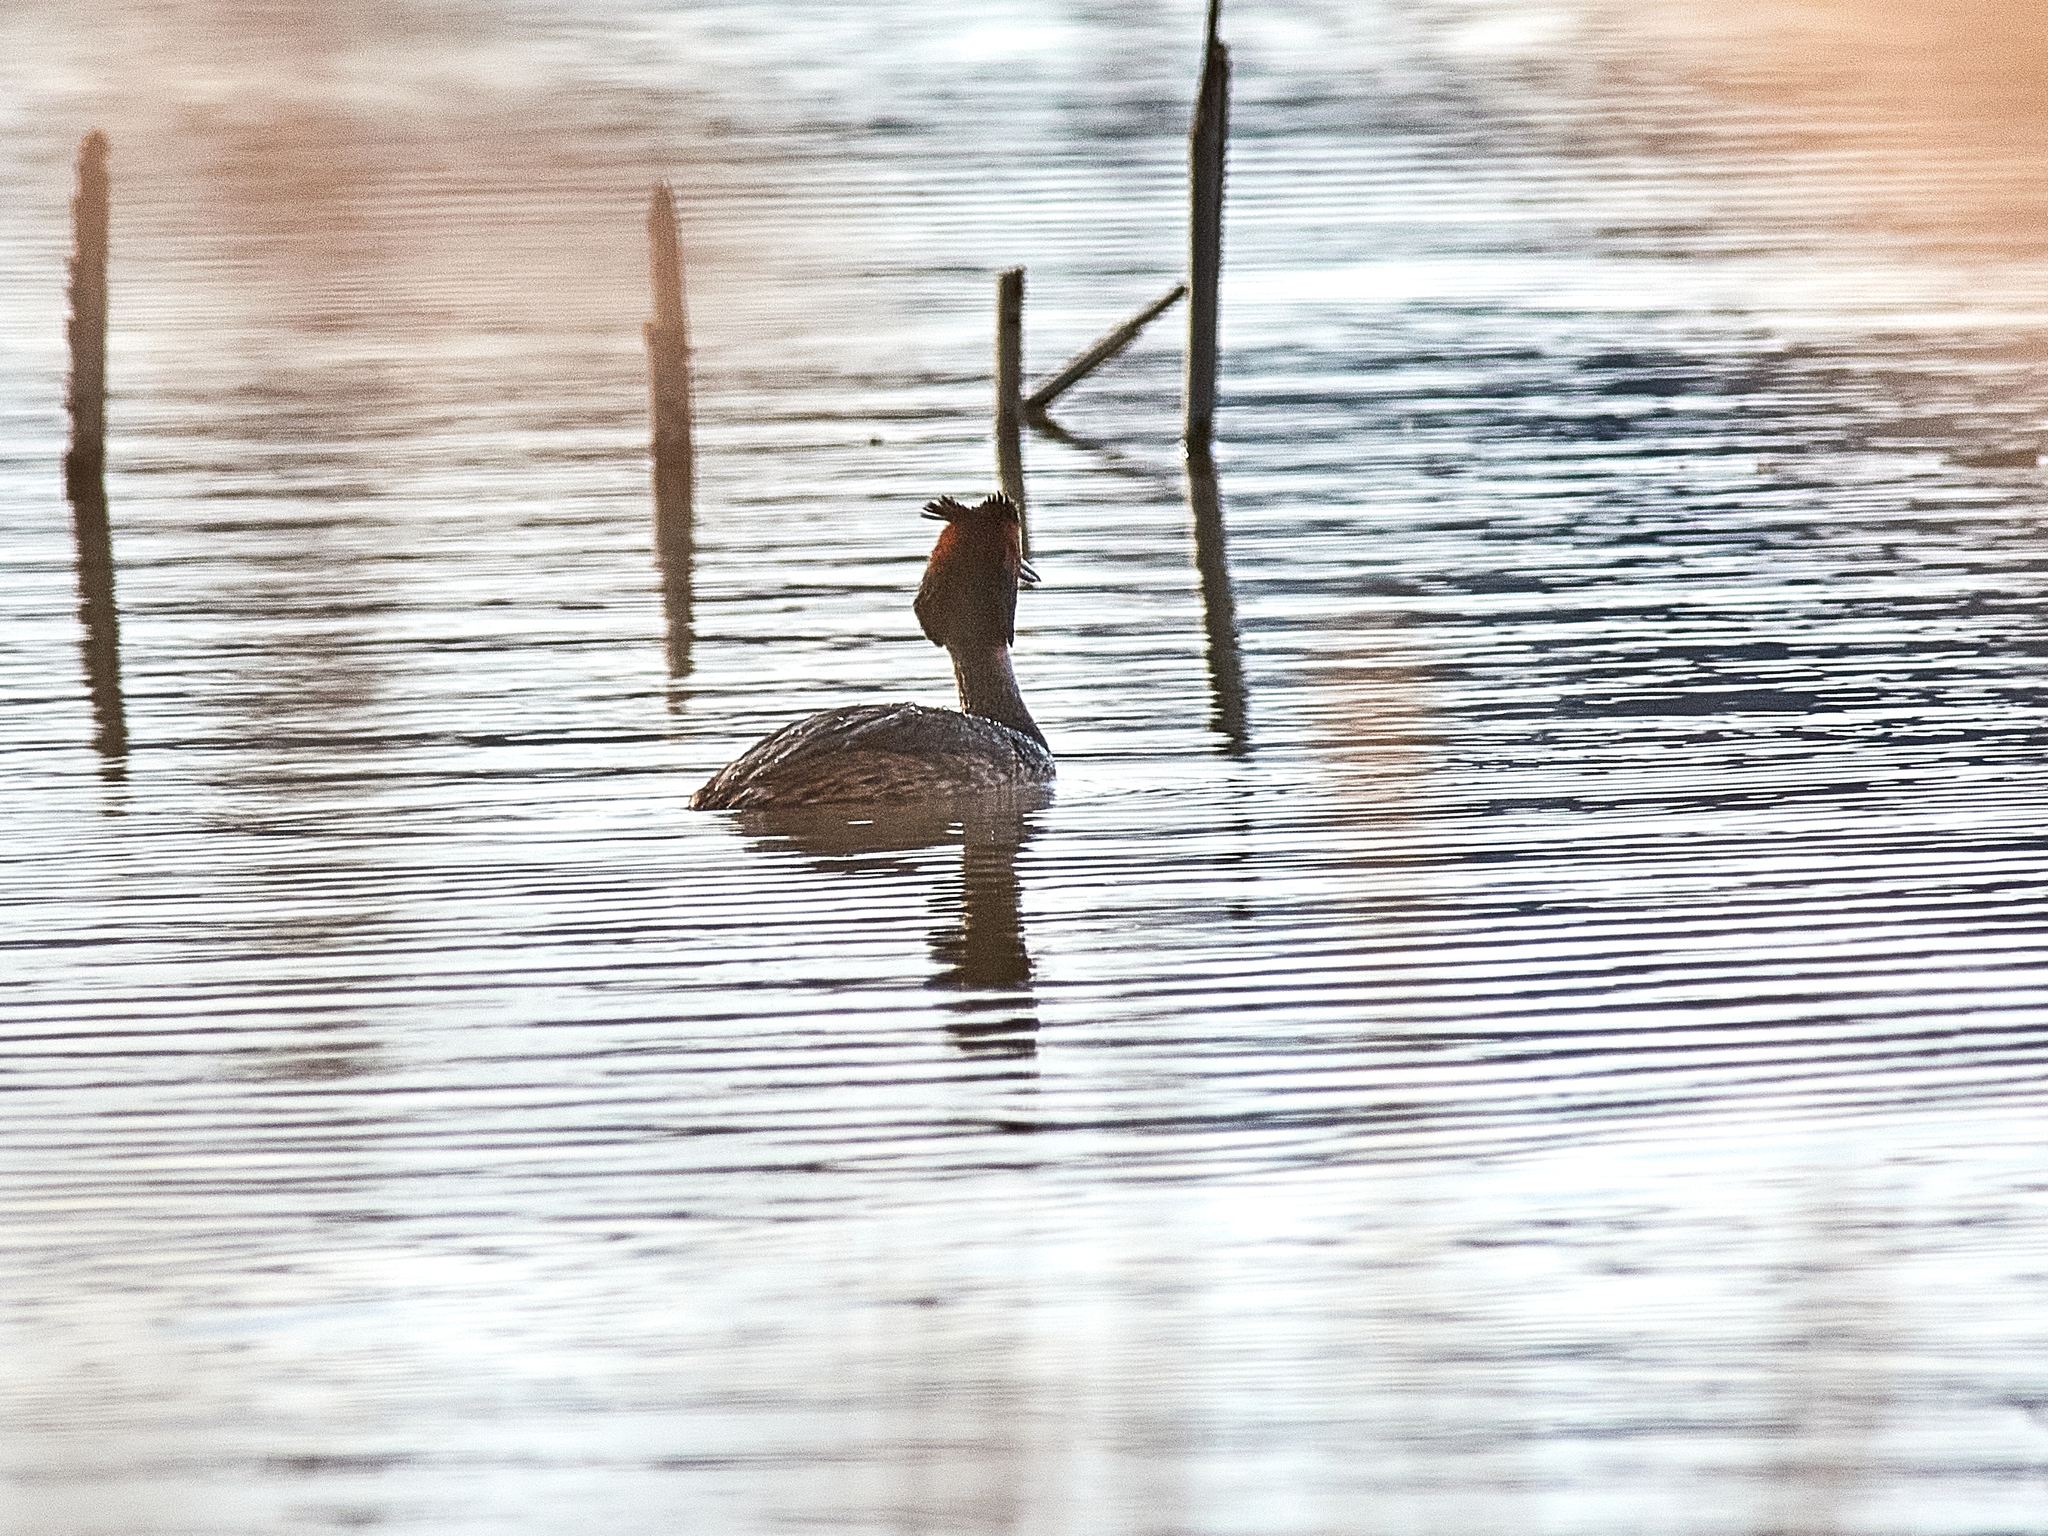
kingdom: Animalia
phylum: Chordata
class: Aves
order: Podicipediformes
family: Podicipedidae
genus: Podiceps
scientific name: Podiceps cristatus
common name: Great crested grebe
